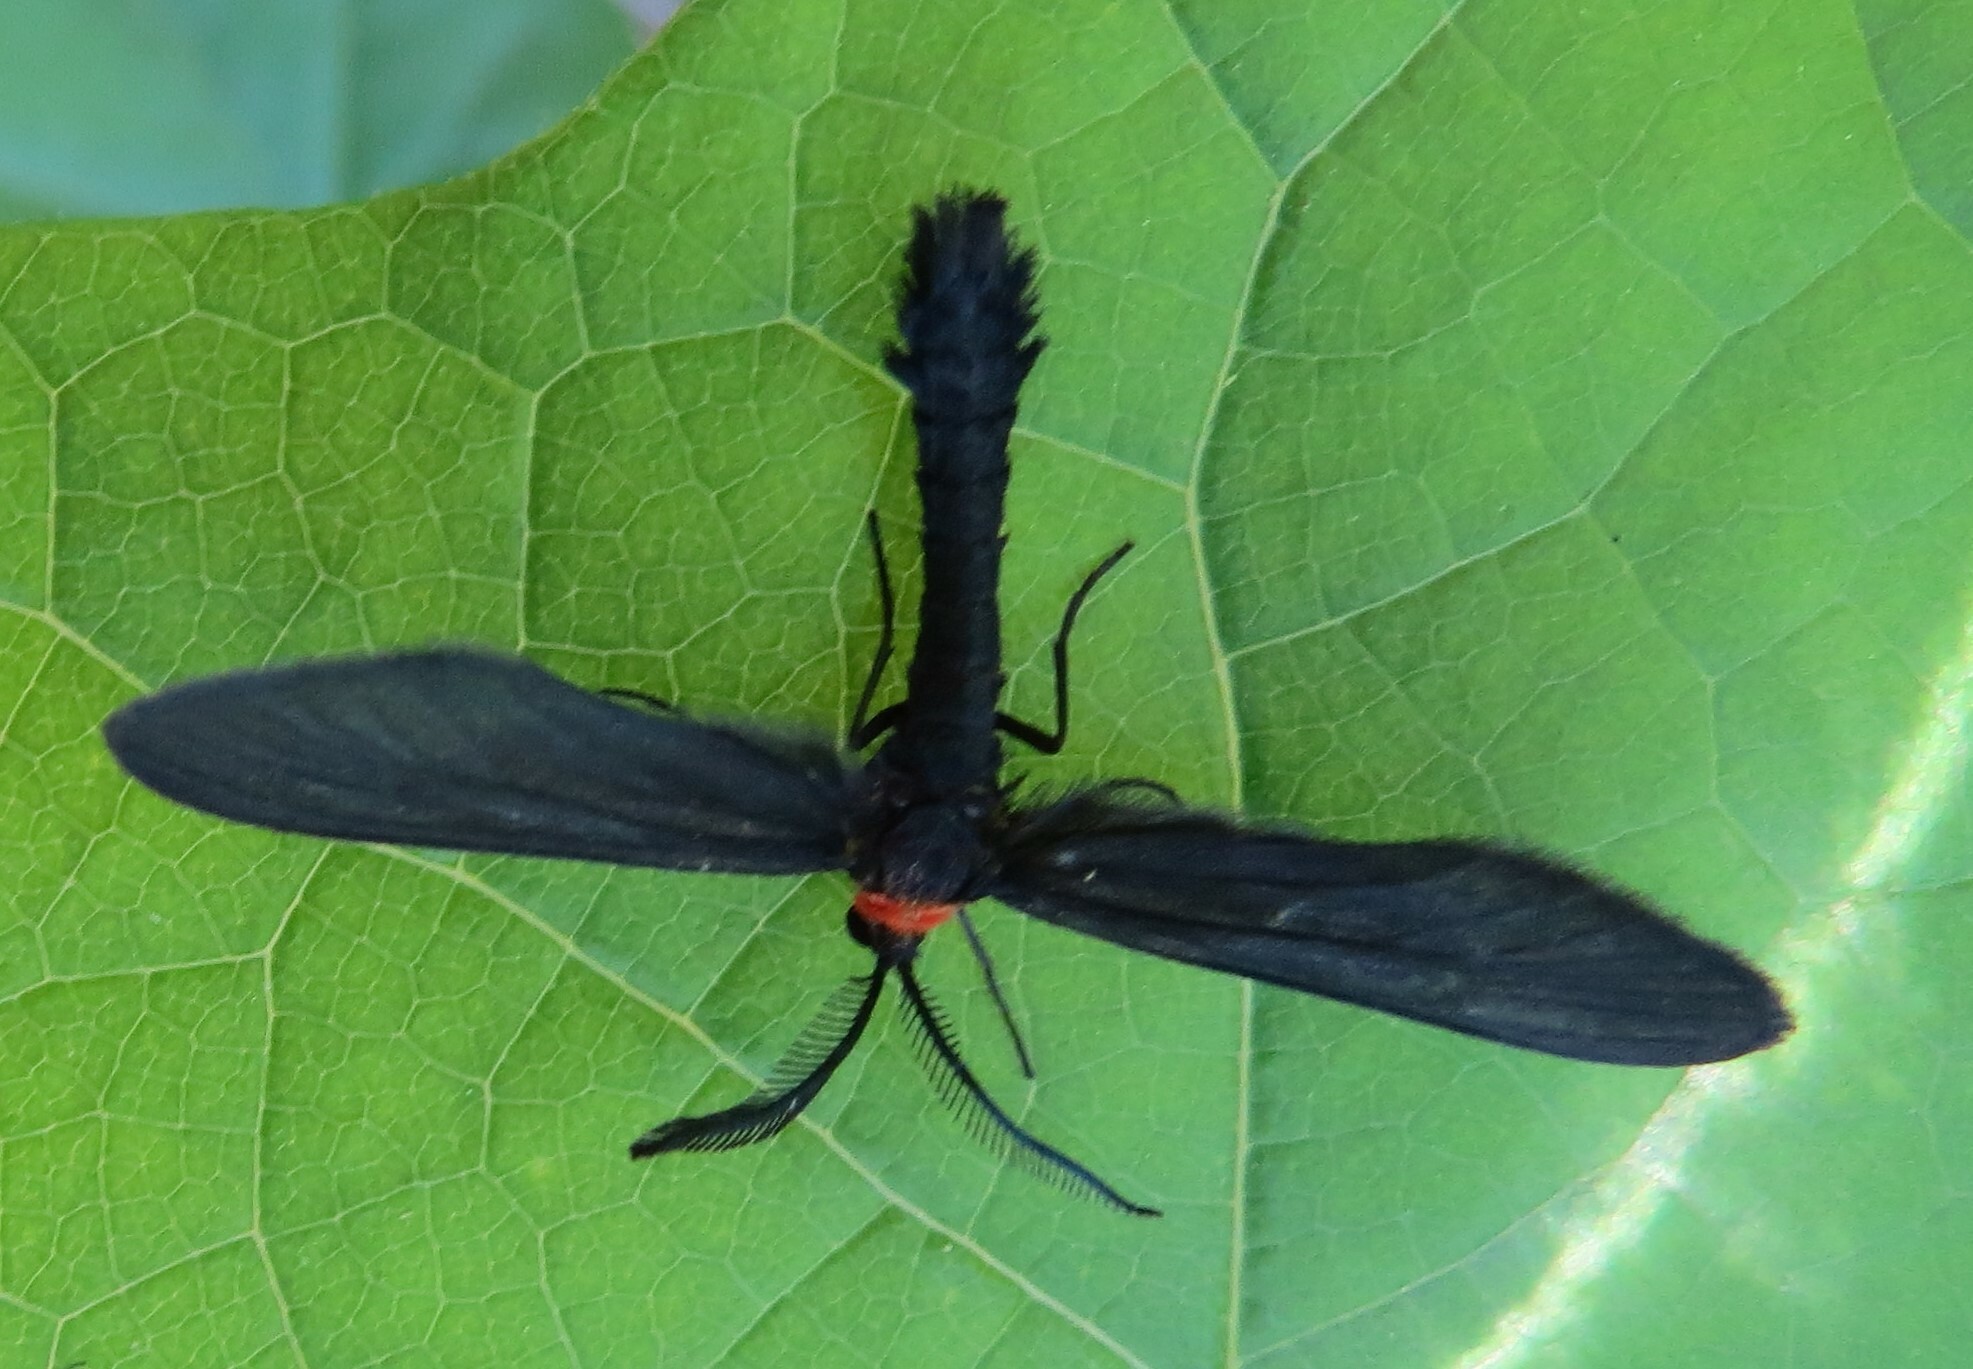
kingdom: Animalia
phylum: Arthropoda
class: Insecta
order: Lepidoptera
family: Zygaenidae
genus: Harrisina
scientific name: Harrisina americana
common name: Grapeleaf skeletonizer moth
